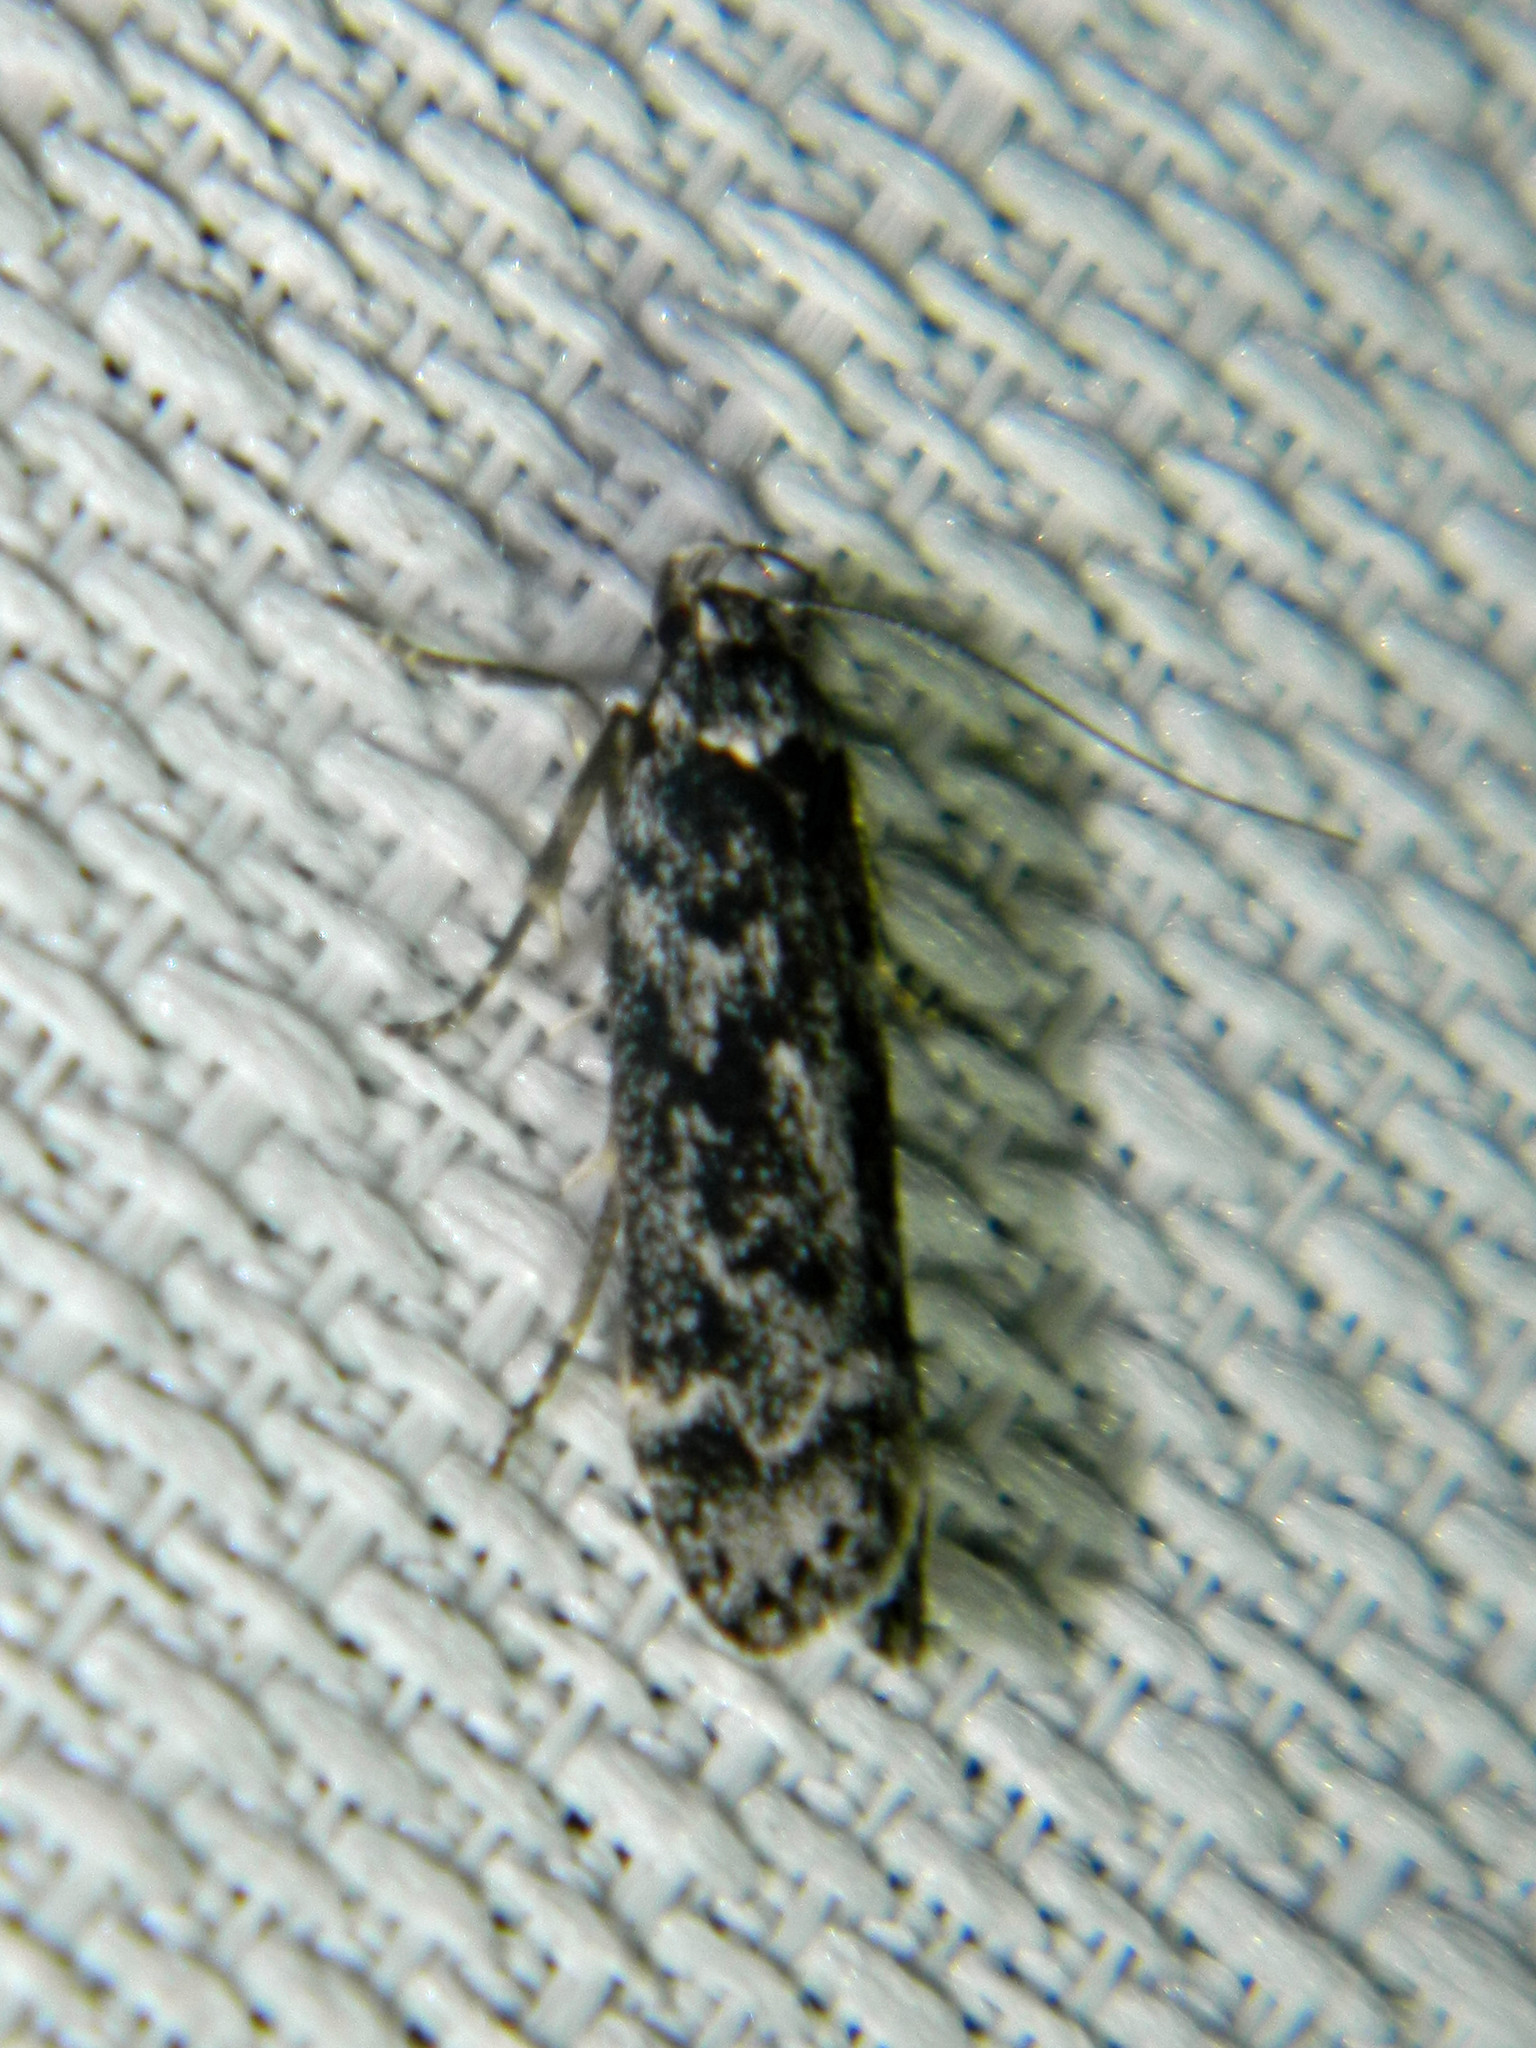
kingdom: Animalia
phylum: Arthropoda
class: Insecta
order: Lepidoptera
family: Gelechiidae
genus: Anacampsis
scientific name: Anacampsis niveopulvella
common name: Pale-headed aspen leafroller moth
